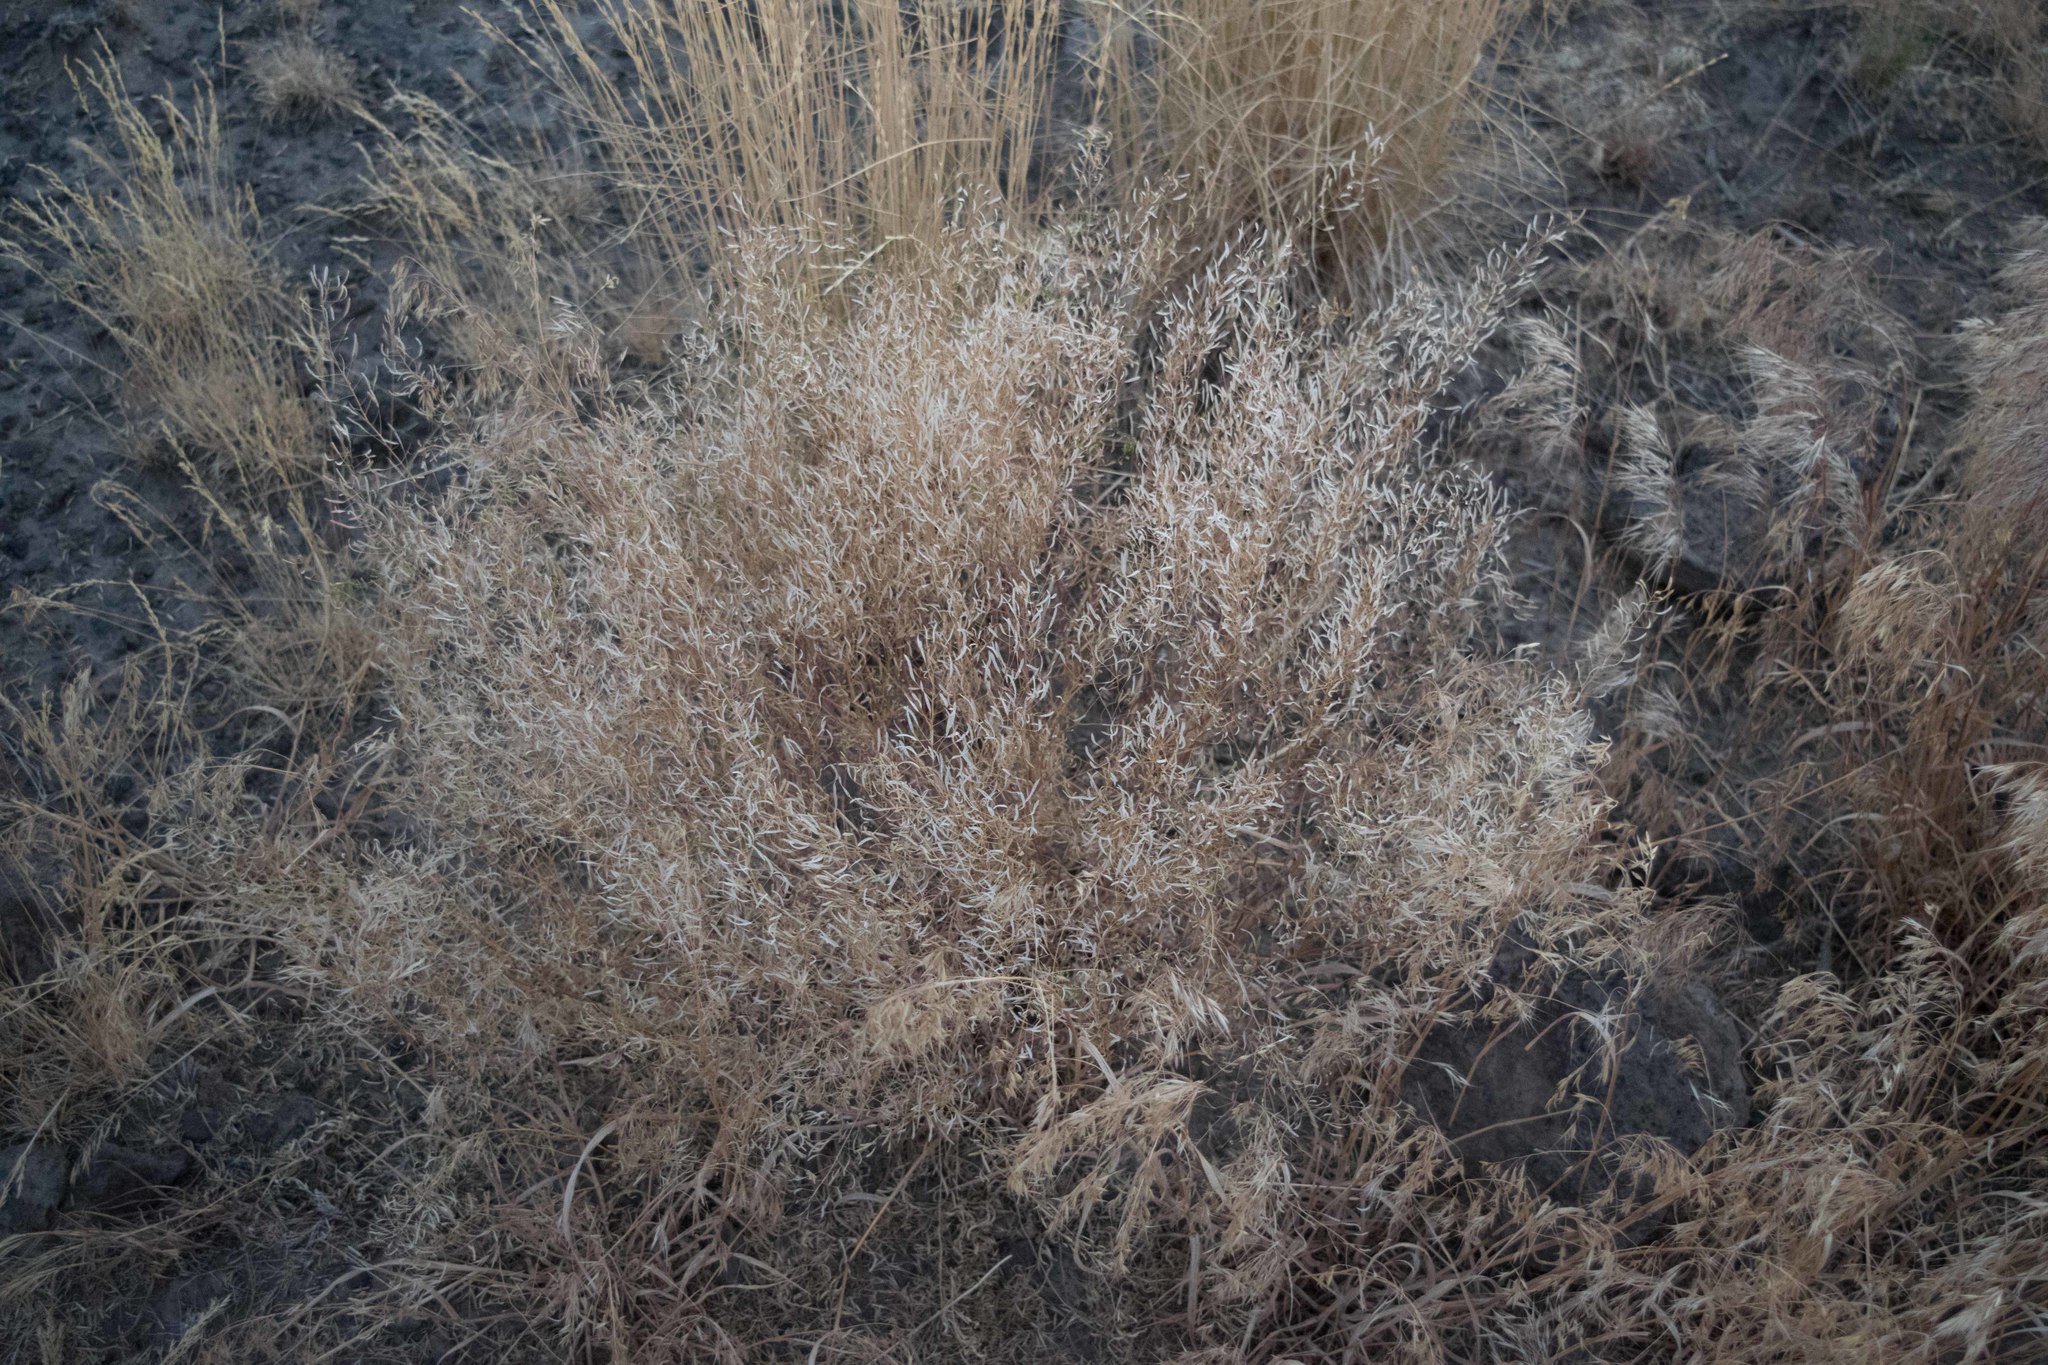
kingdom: Plantae
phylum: Tracheophyta
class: Liliopsida
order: Poales
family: Poaceae
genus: Bromus
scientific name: Bromus tectorum
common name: Cheatgrass
